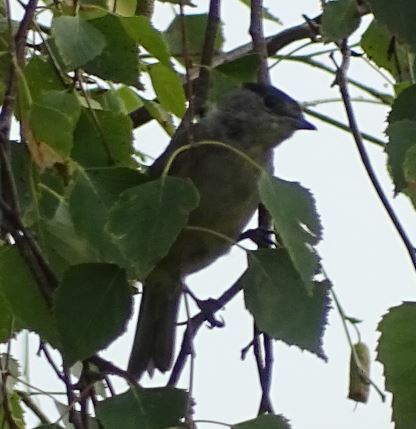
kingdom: Animalia
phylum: Chordata
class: Aves
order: Passeriformes
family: Sylviidae
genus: Sylvia
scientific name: Sylvia atricapilla
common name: Eurasian blackcap
